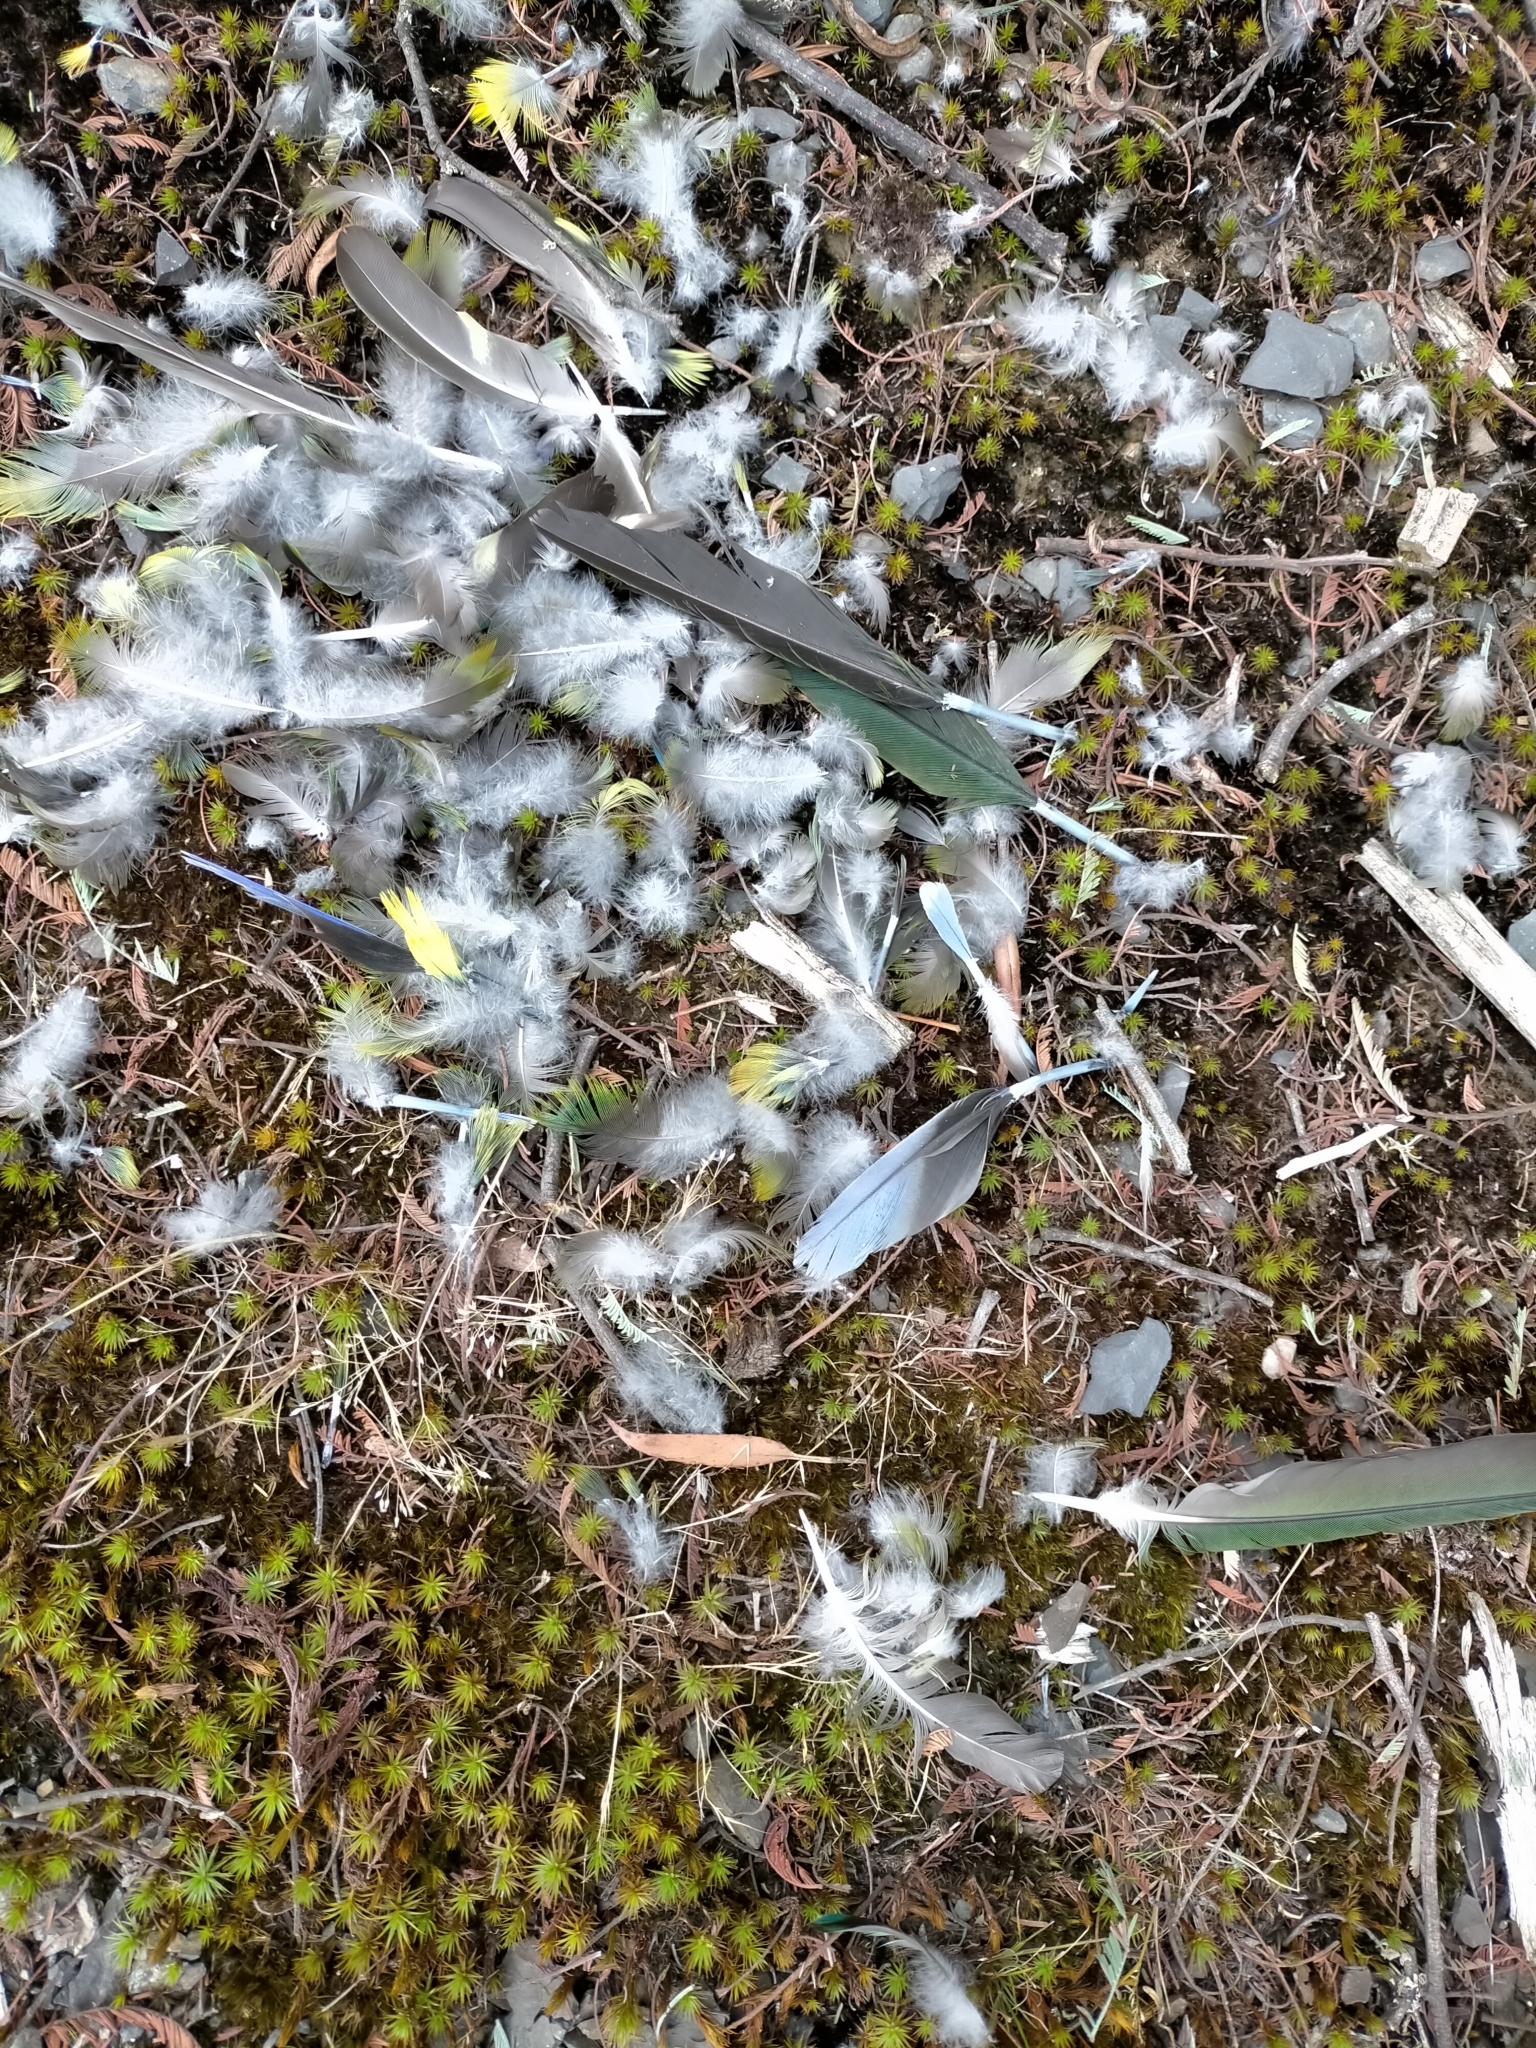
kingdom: Animalia
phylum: Chordata
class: Aves
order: Psittaciformes
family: Psittacidae
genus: Platycercus
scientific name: Platycercus caledonicus
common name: Green rosella
